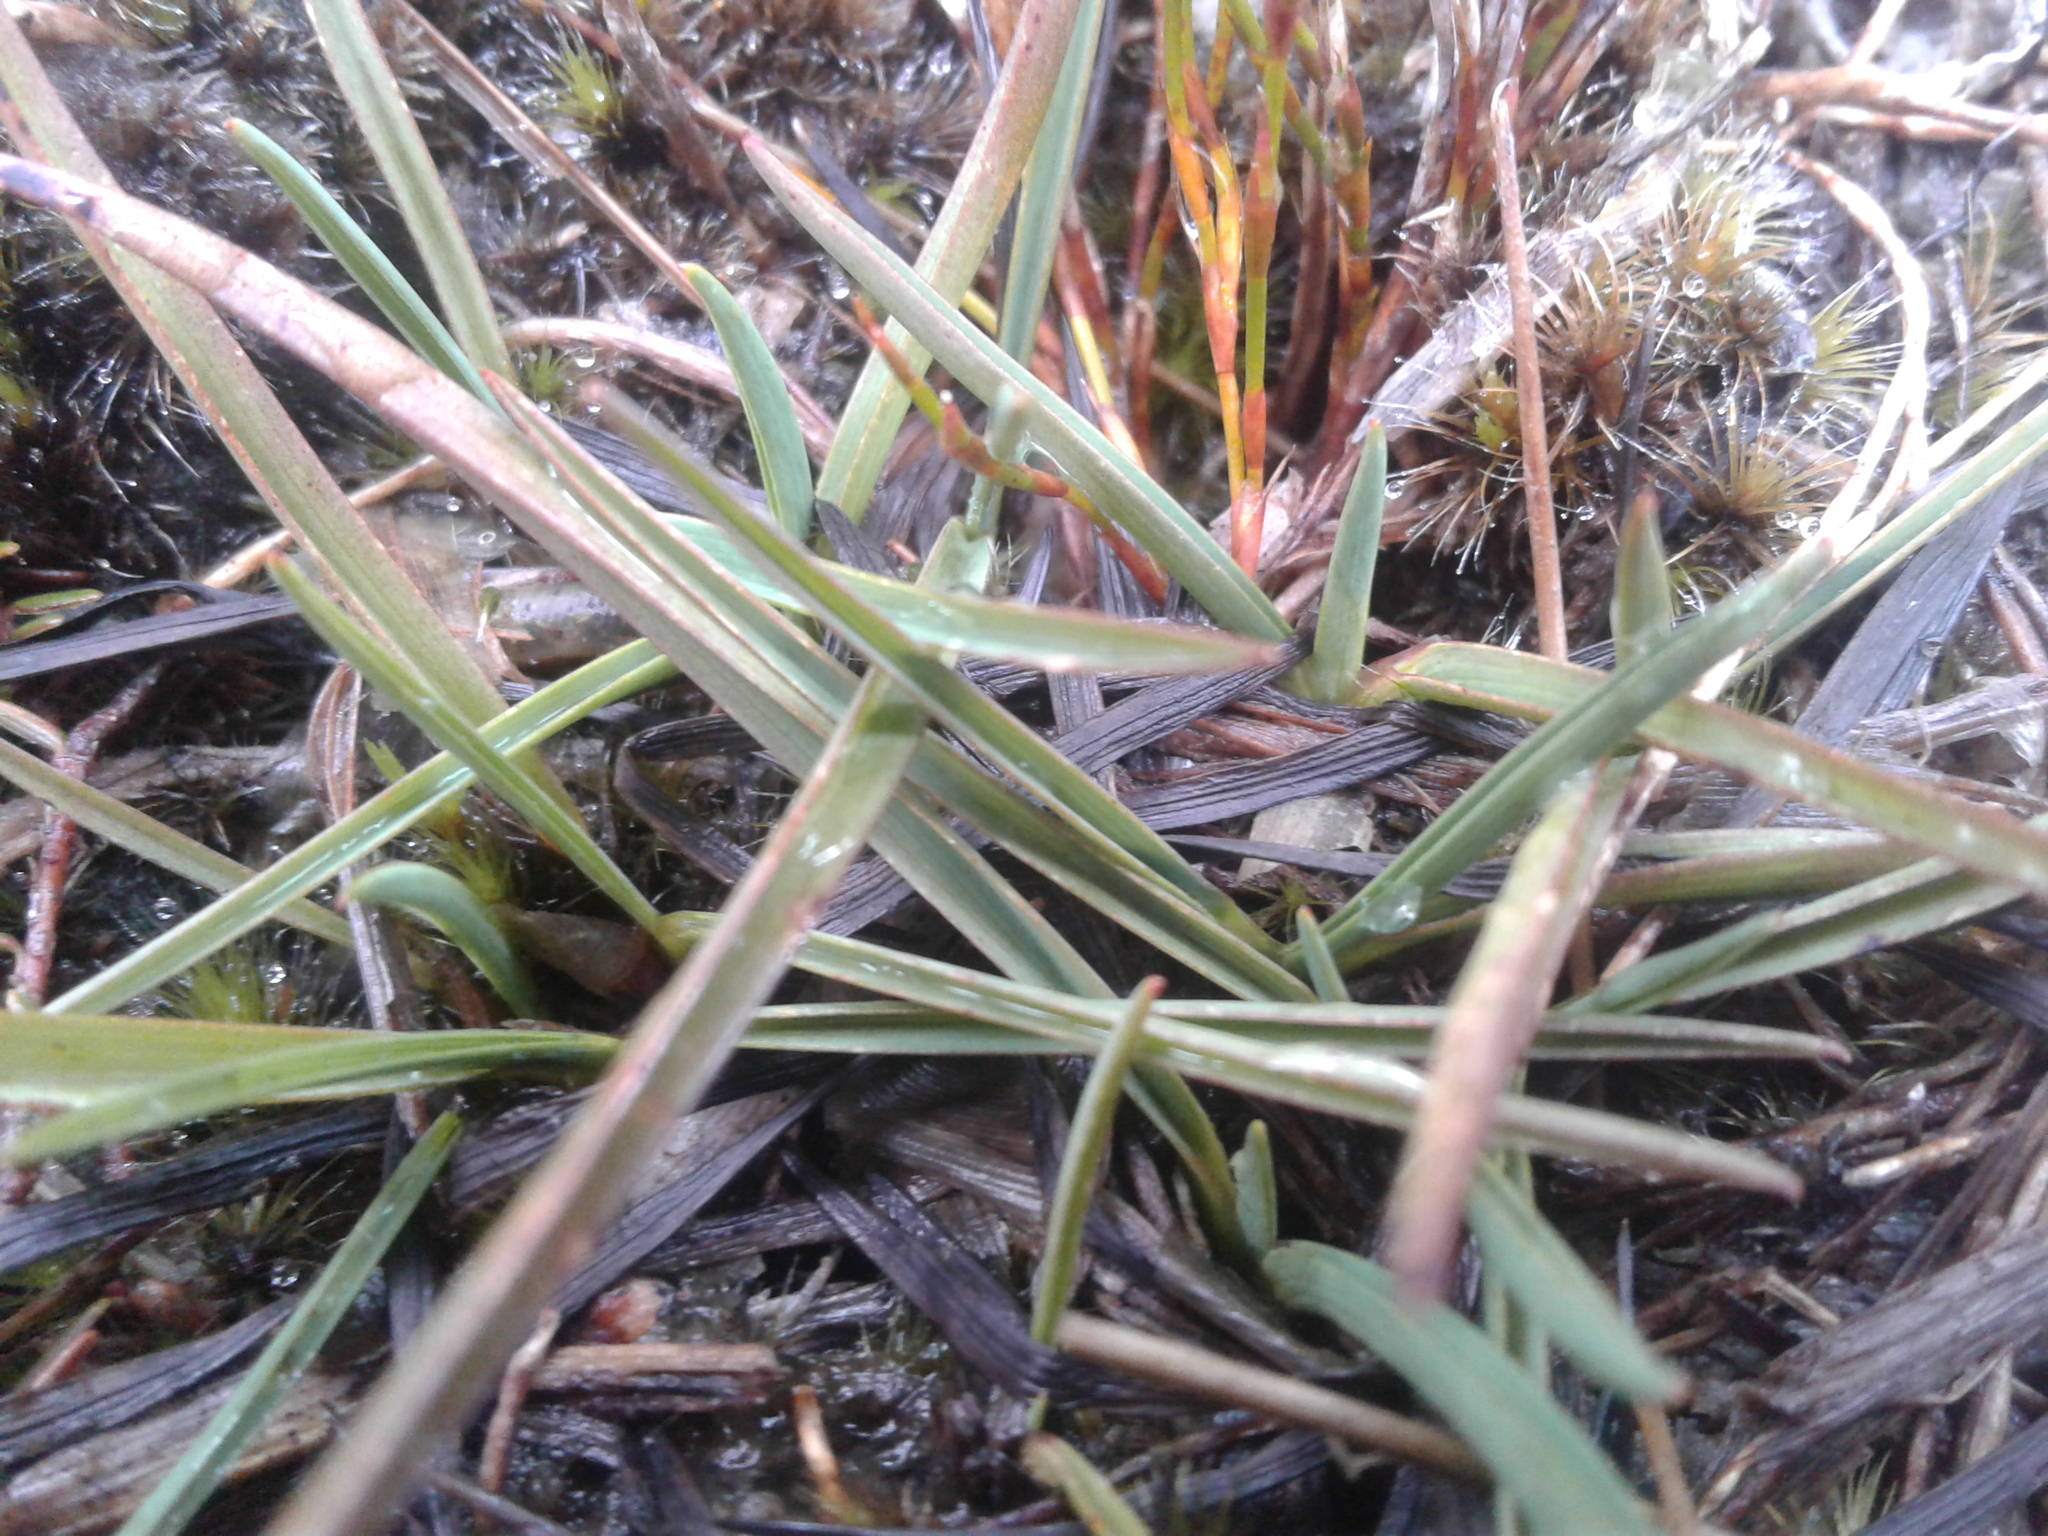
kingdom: Plantae
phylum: Tracheophyta
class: Liliopsida
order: Asparagales
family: Asphodelaceae
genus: Herpolirion
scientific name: Herpolirion novae-zelandiae
